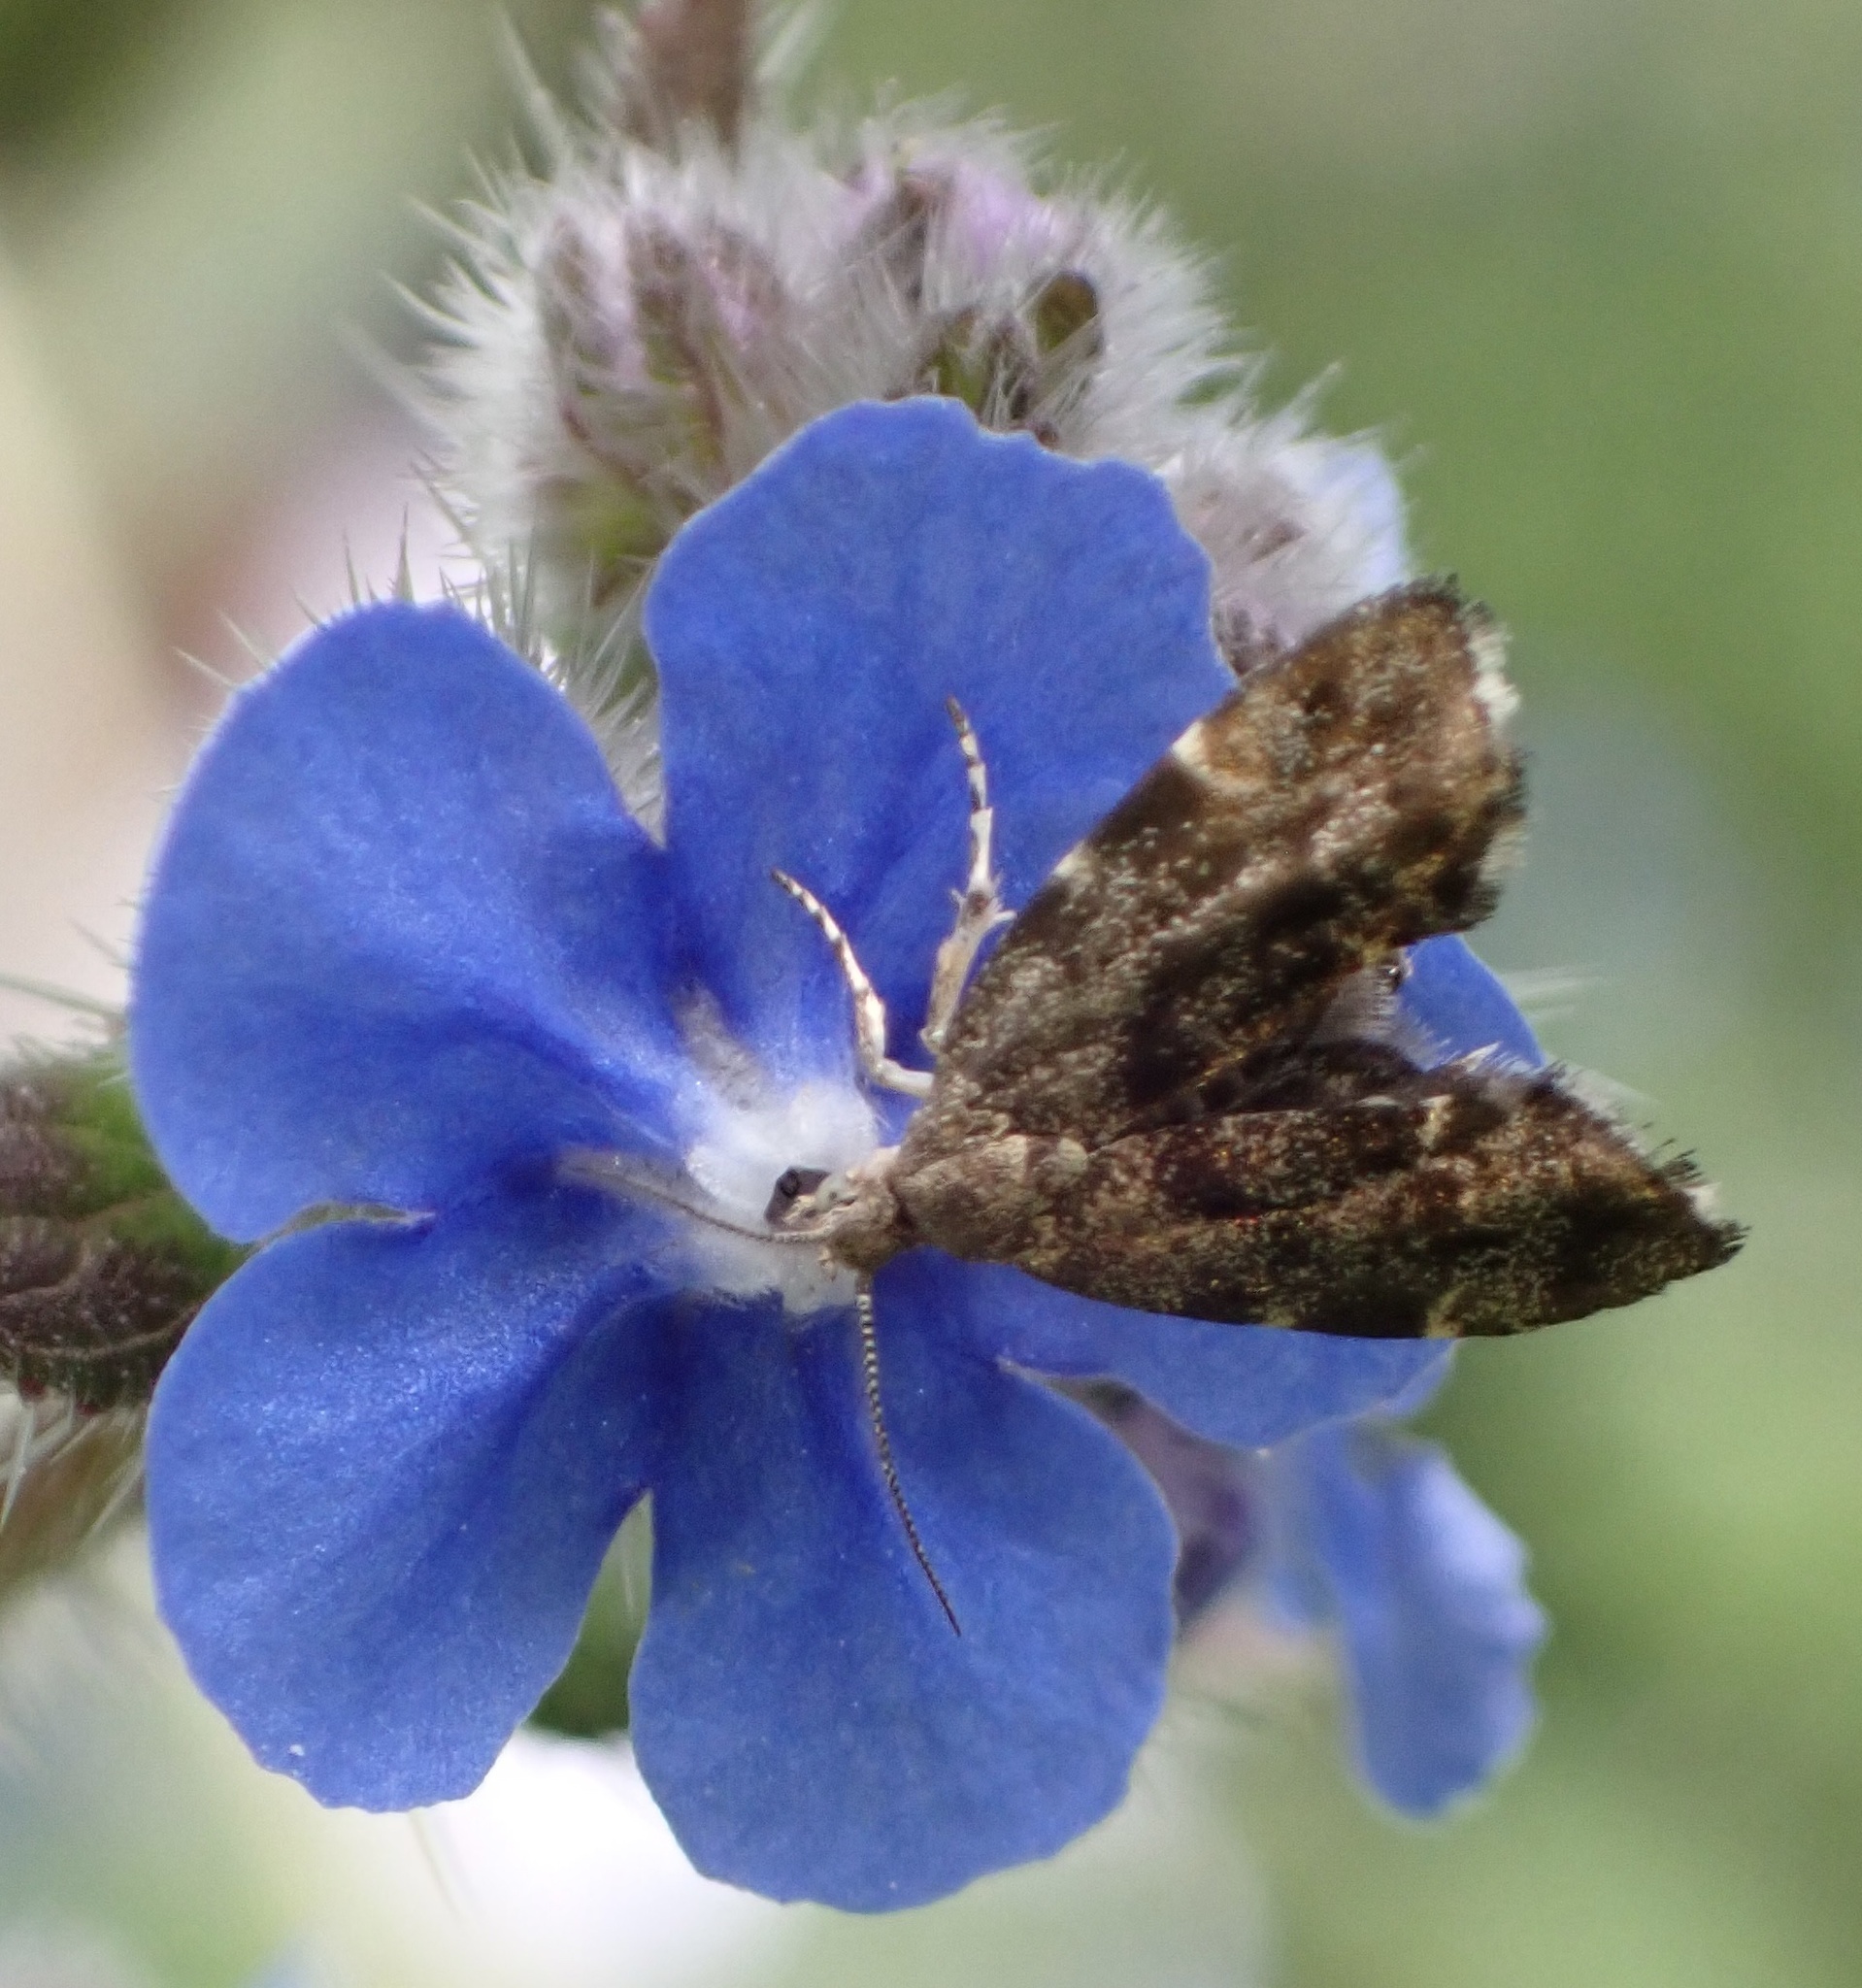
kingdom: Animalia
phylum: Arthropoda
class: Insecta
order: Lepidoptera
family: Choreutidae
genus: Anthophila
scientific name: Anthophila fabriciana
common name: Nettle-tap
